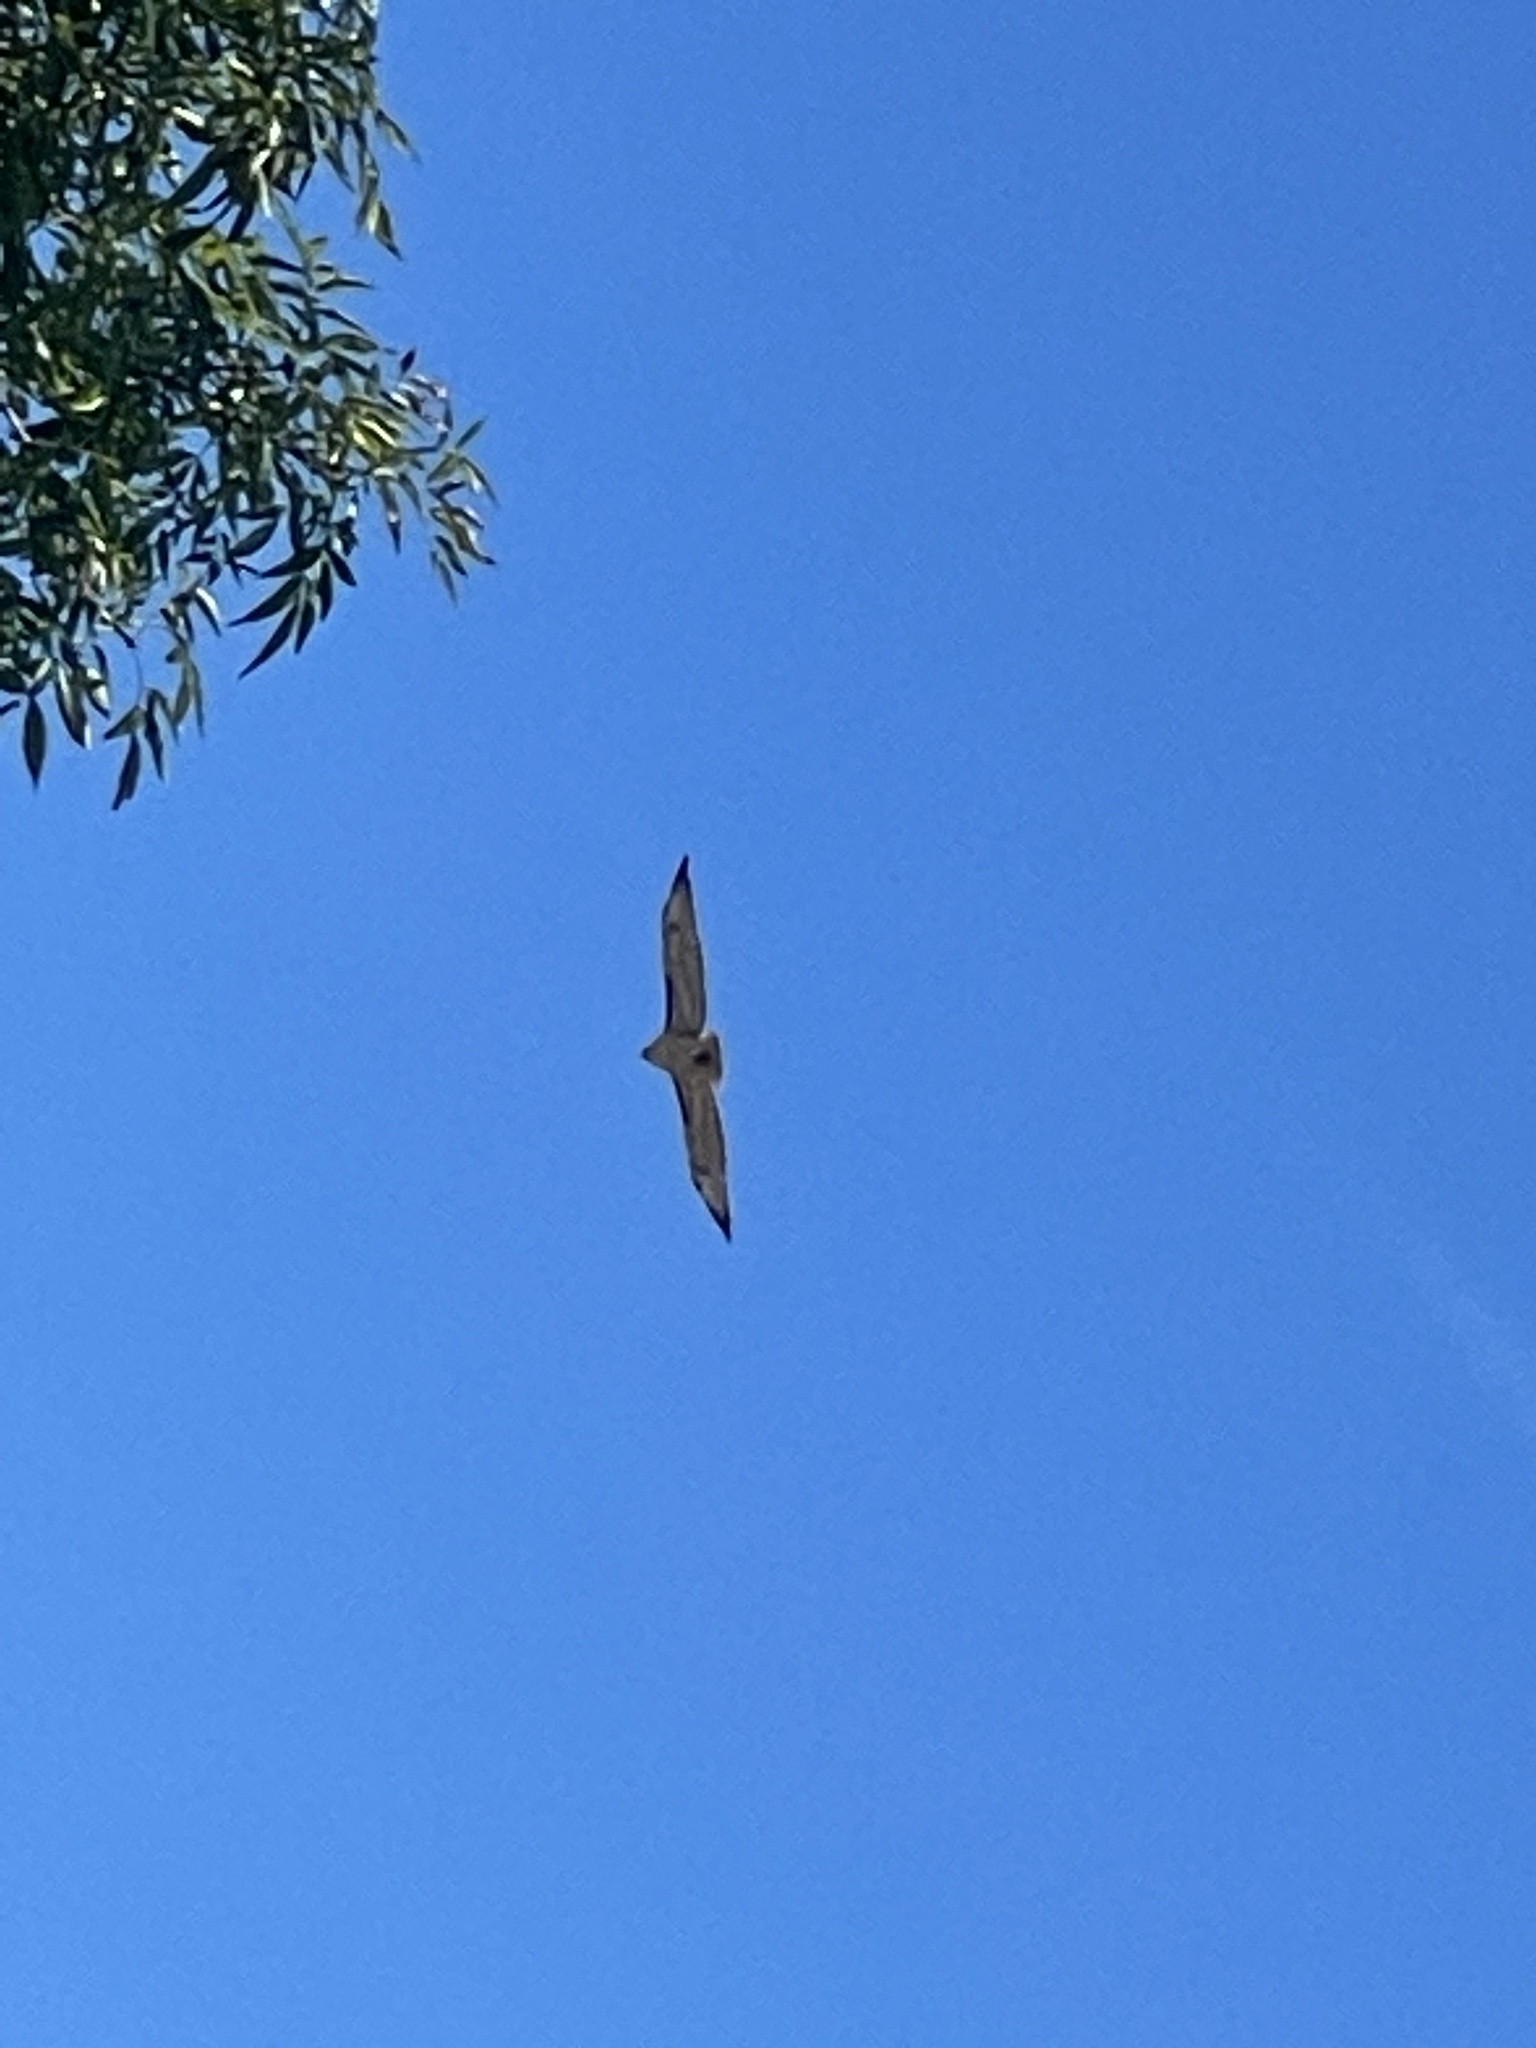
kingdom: Animalia
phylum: Chordata
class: Aves
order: Accipitriformes
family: Accipitridae
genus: Buteo
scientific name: Buteo jamaicensis
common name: Red-tailed hawk
